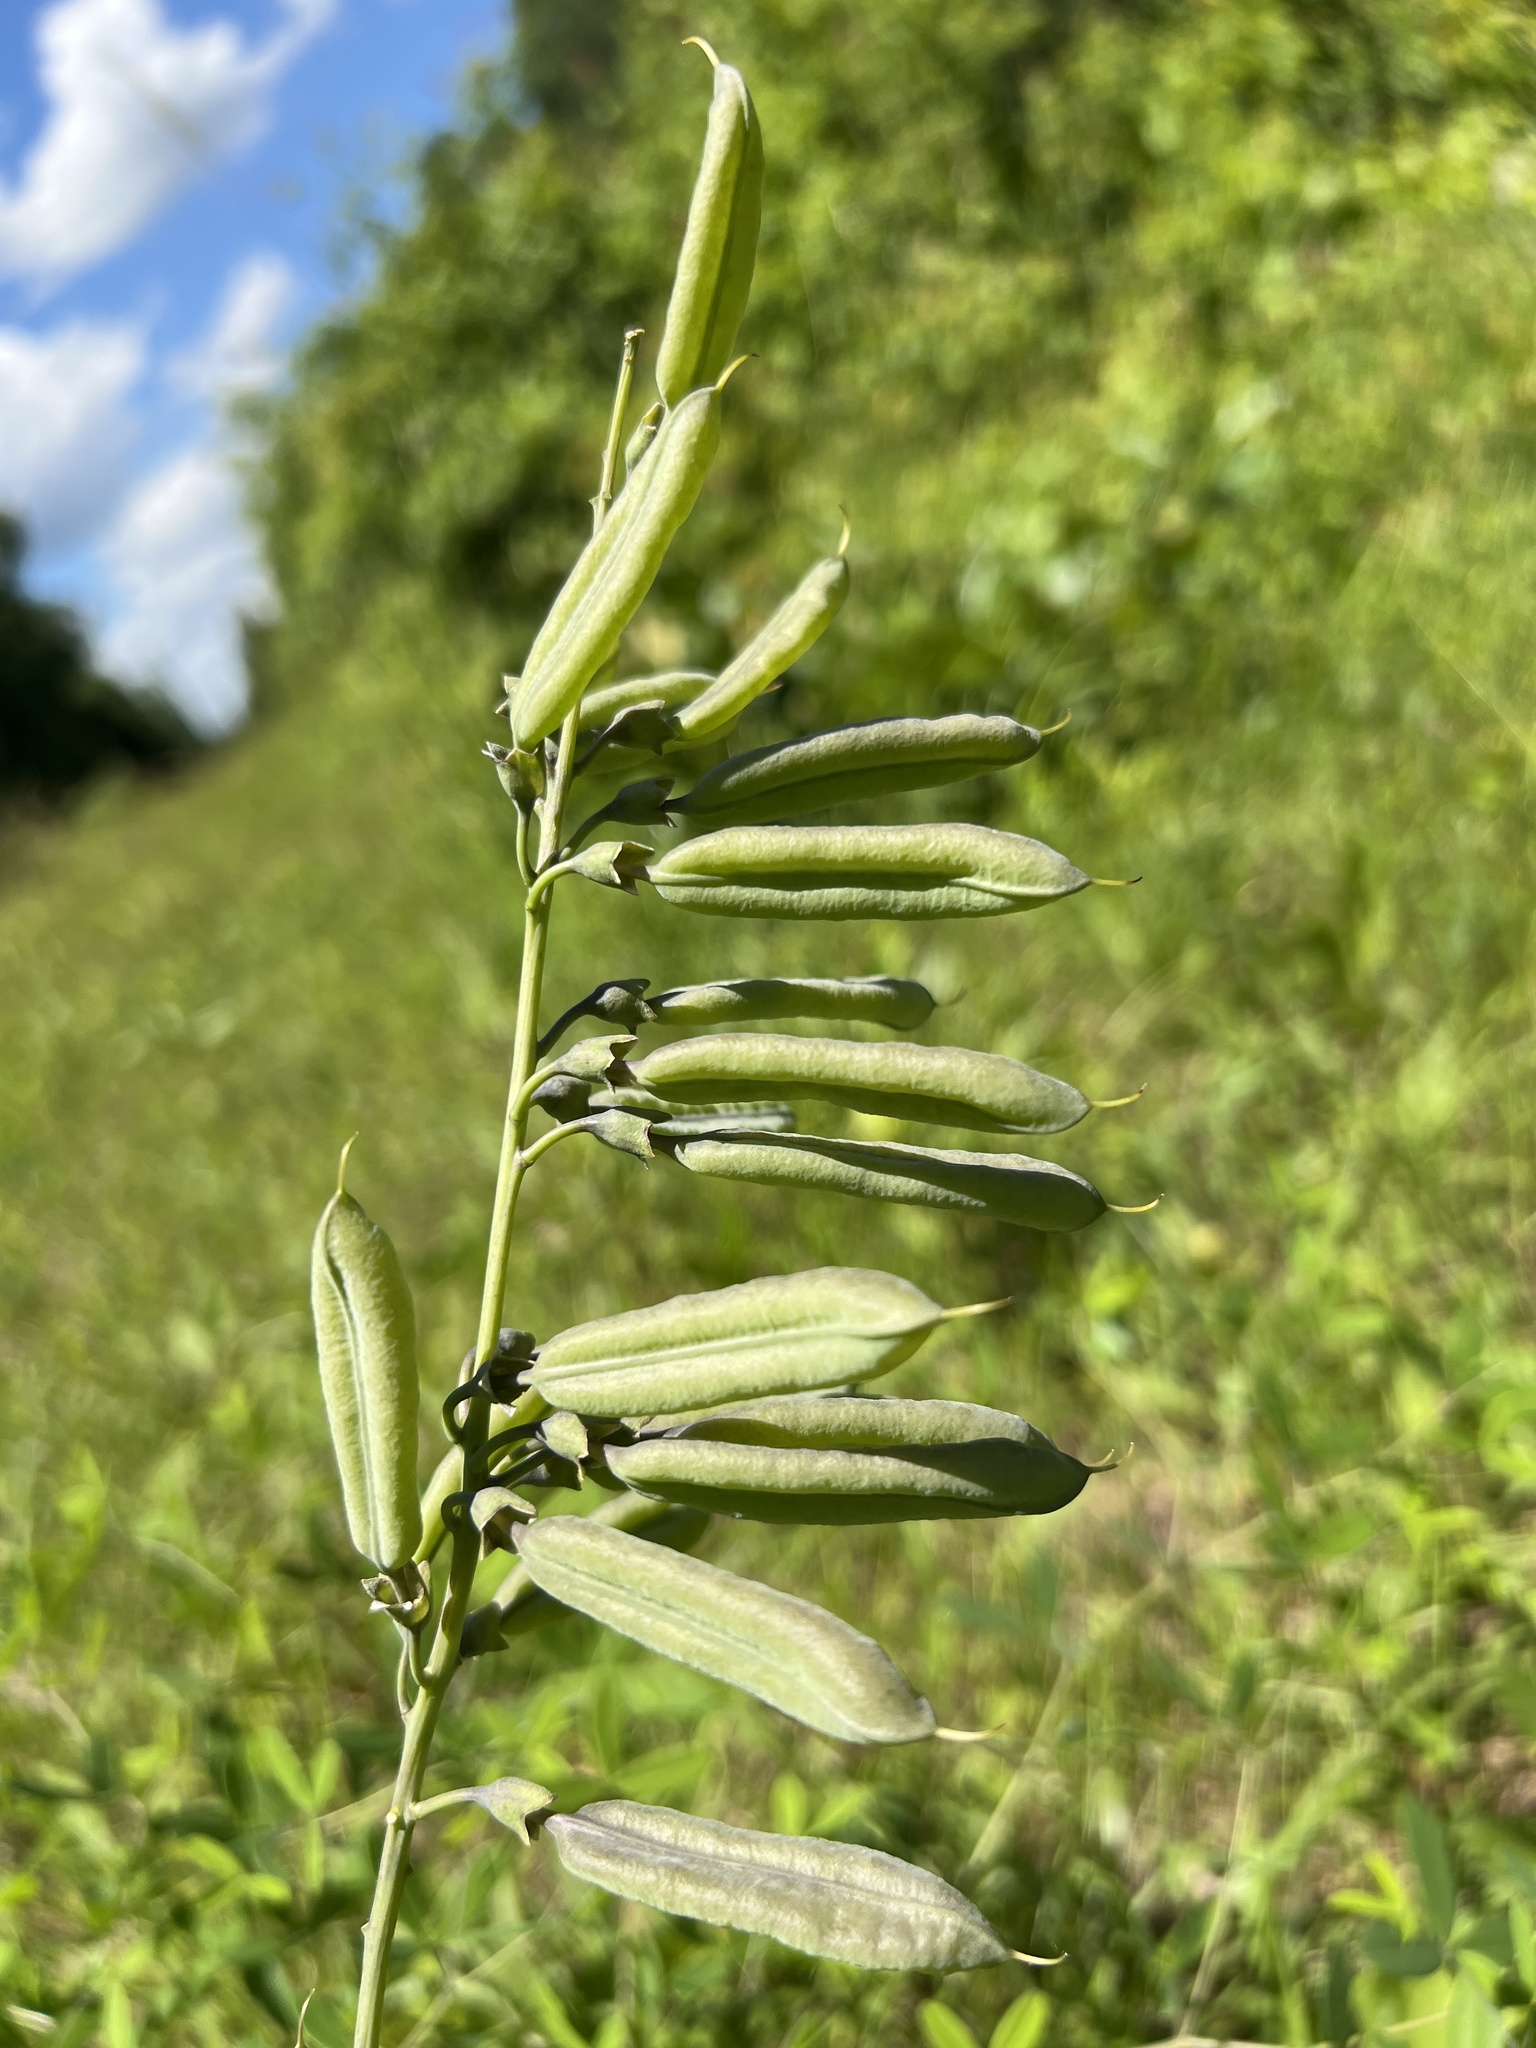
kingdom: Plantae
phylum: Tracheophyta
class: Magnoliopsida
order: Fabales
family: Fabaceae
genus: Baptisia
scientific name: Baptisia albescens
